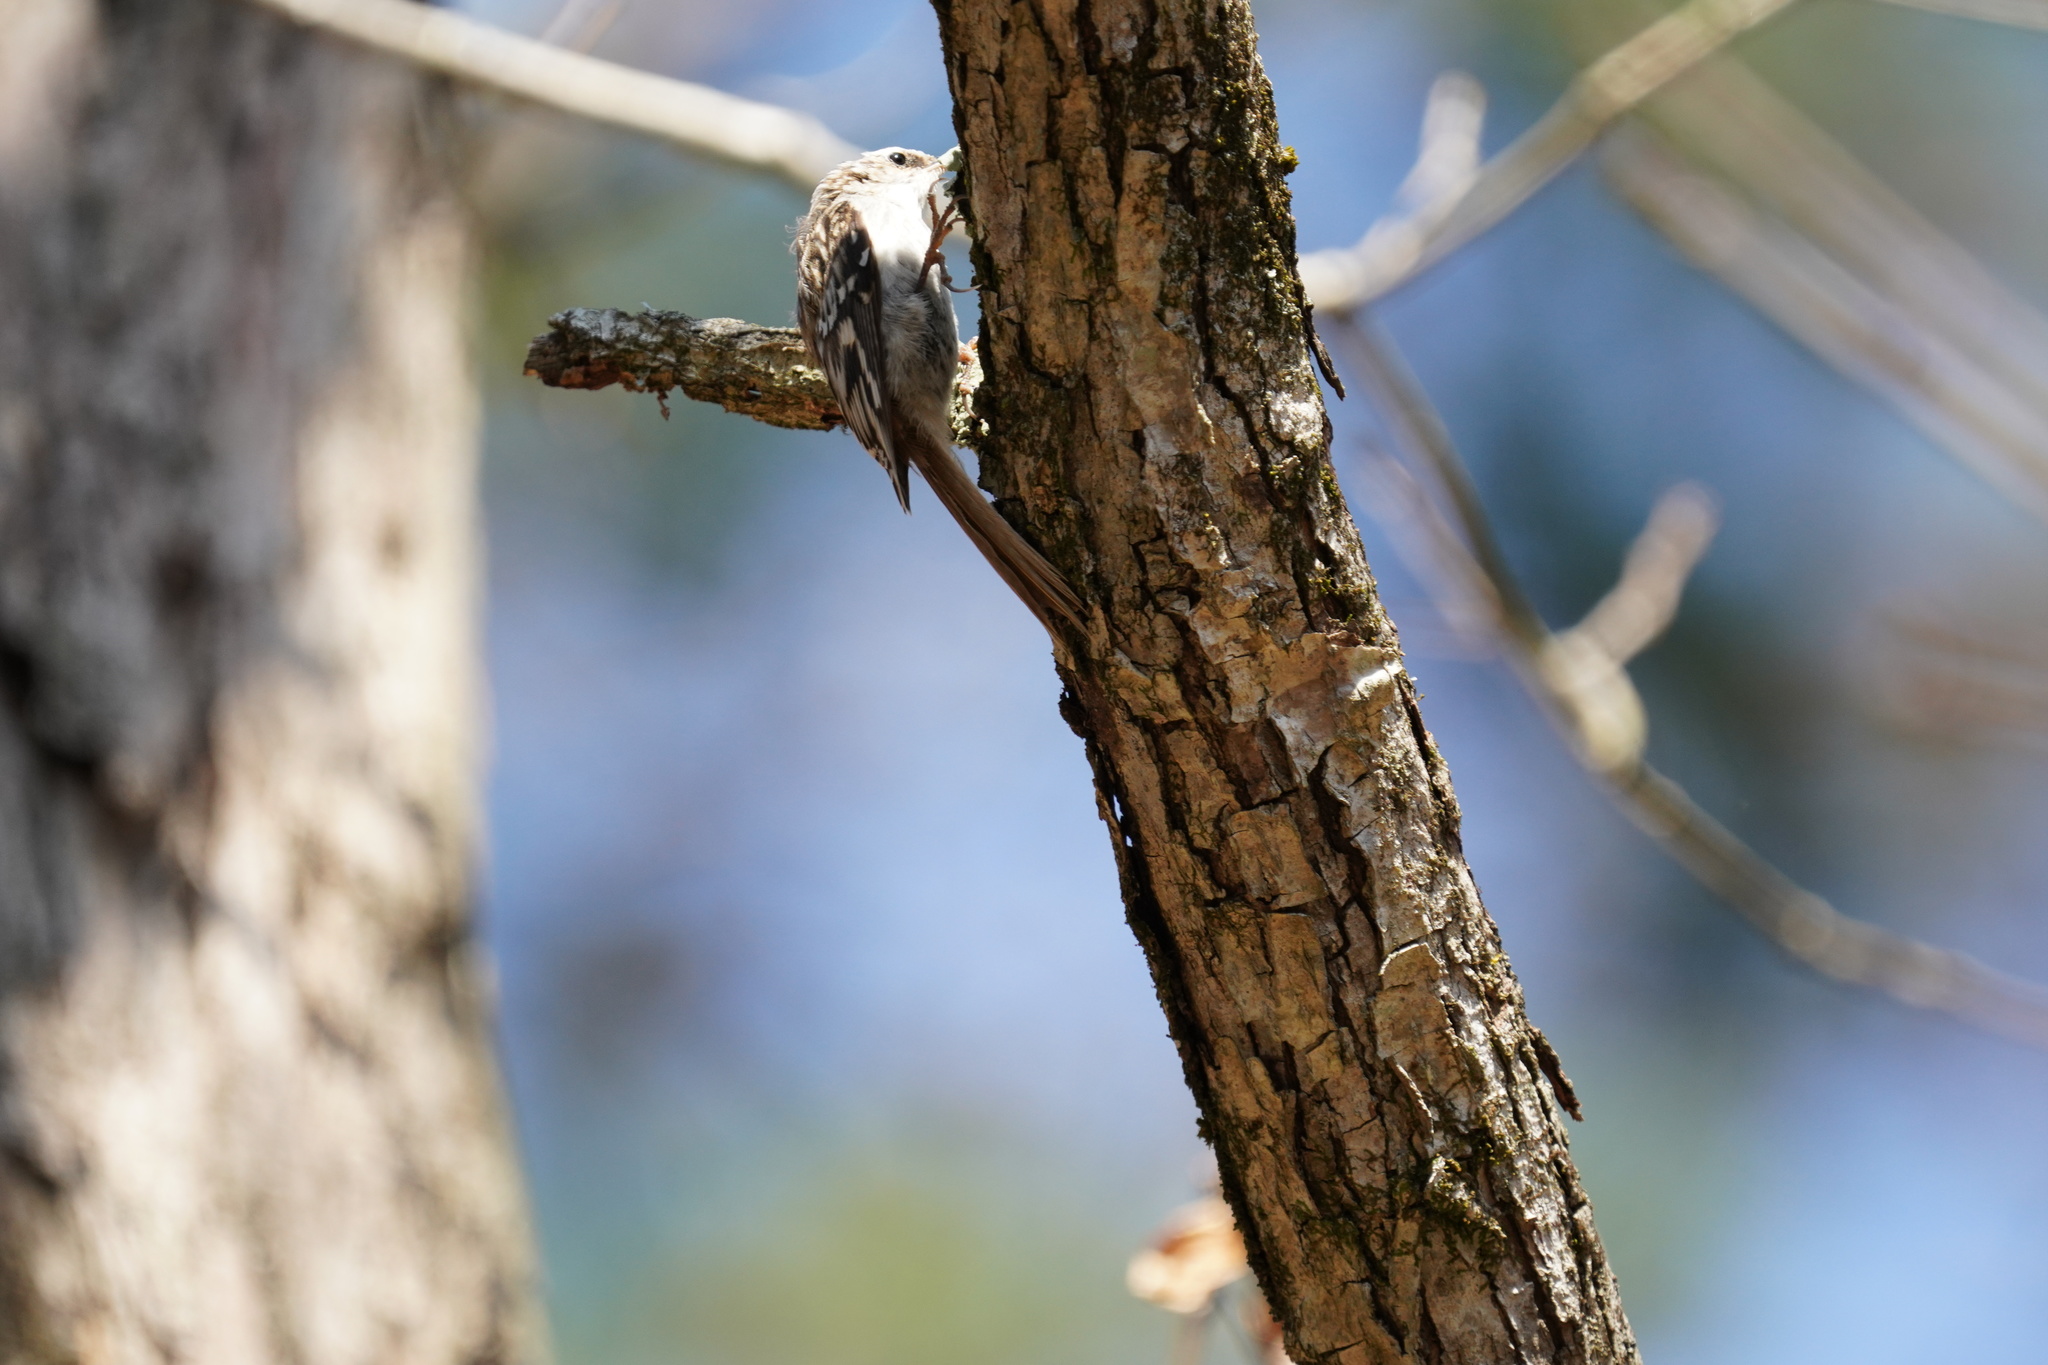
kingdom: Animalia
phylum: Chordata
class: Aves
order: Passeriformes
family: Certhiidae
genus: Certhia
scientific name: Certhia americana
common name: Brown creeper
